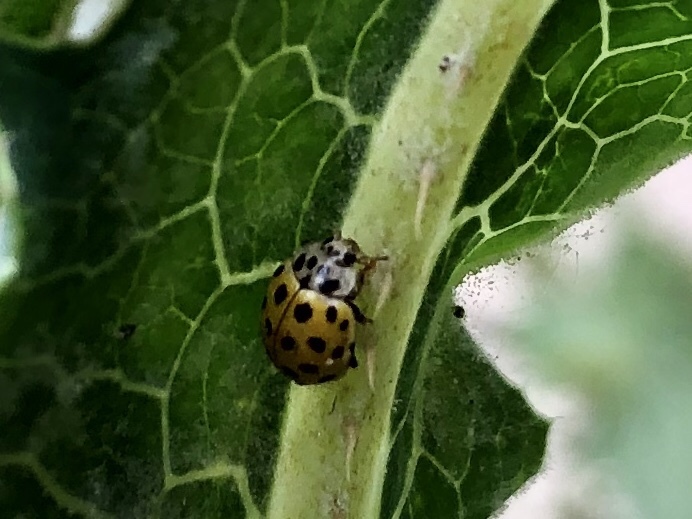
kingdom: Animalia
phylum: Arthropoda
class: Insecta
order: Coleoptera
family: Coccinellidae
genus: Psyllobora
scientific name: Psyllobora vigintiduopunctata
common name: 22-spot ladybird
